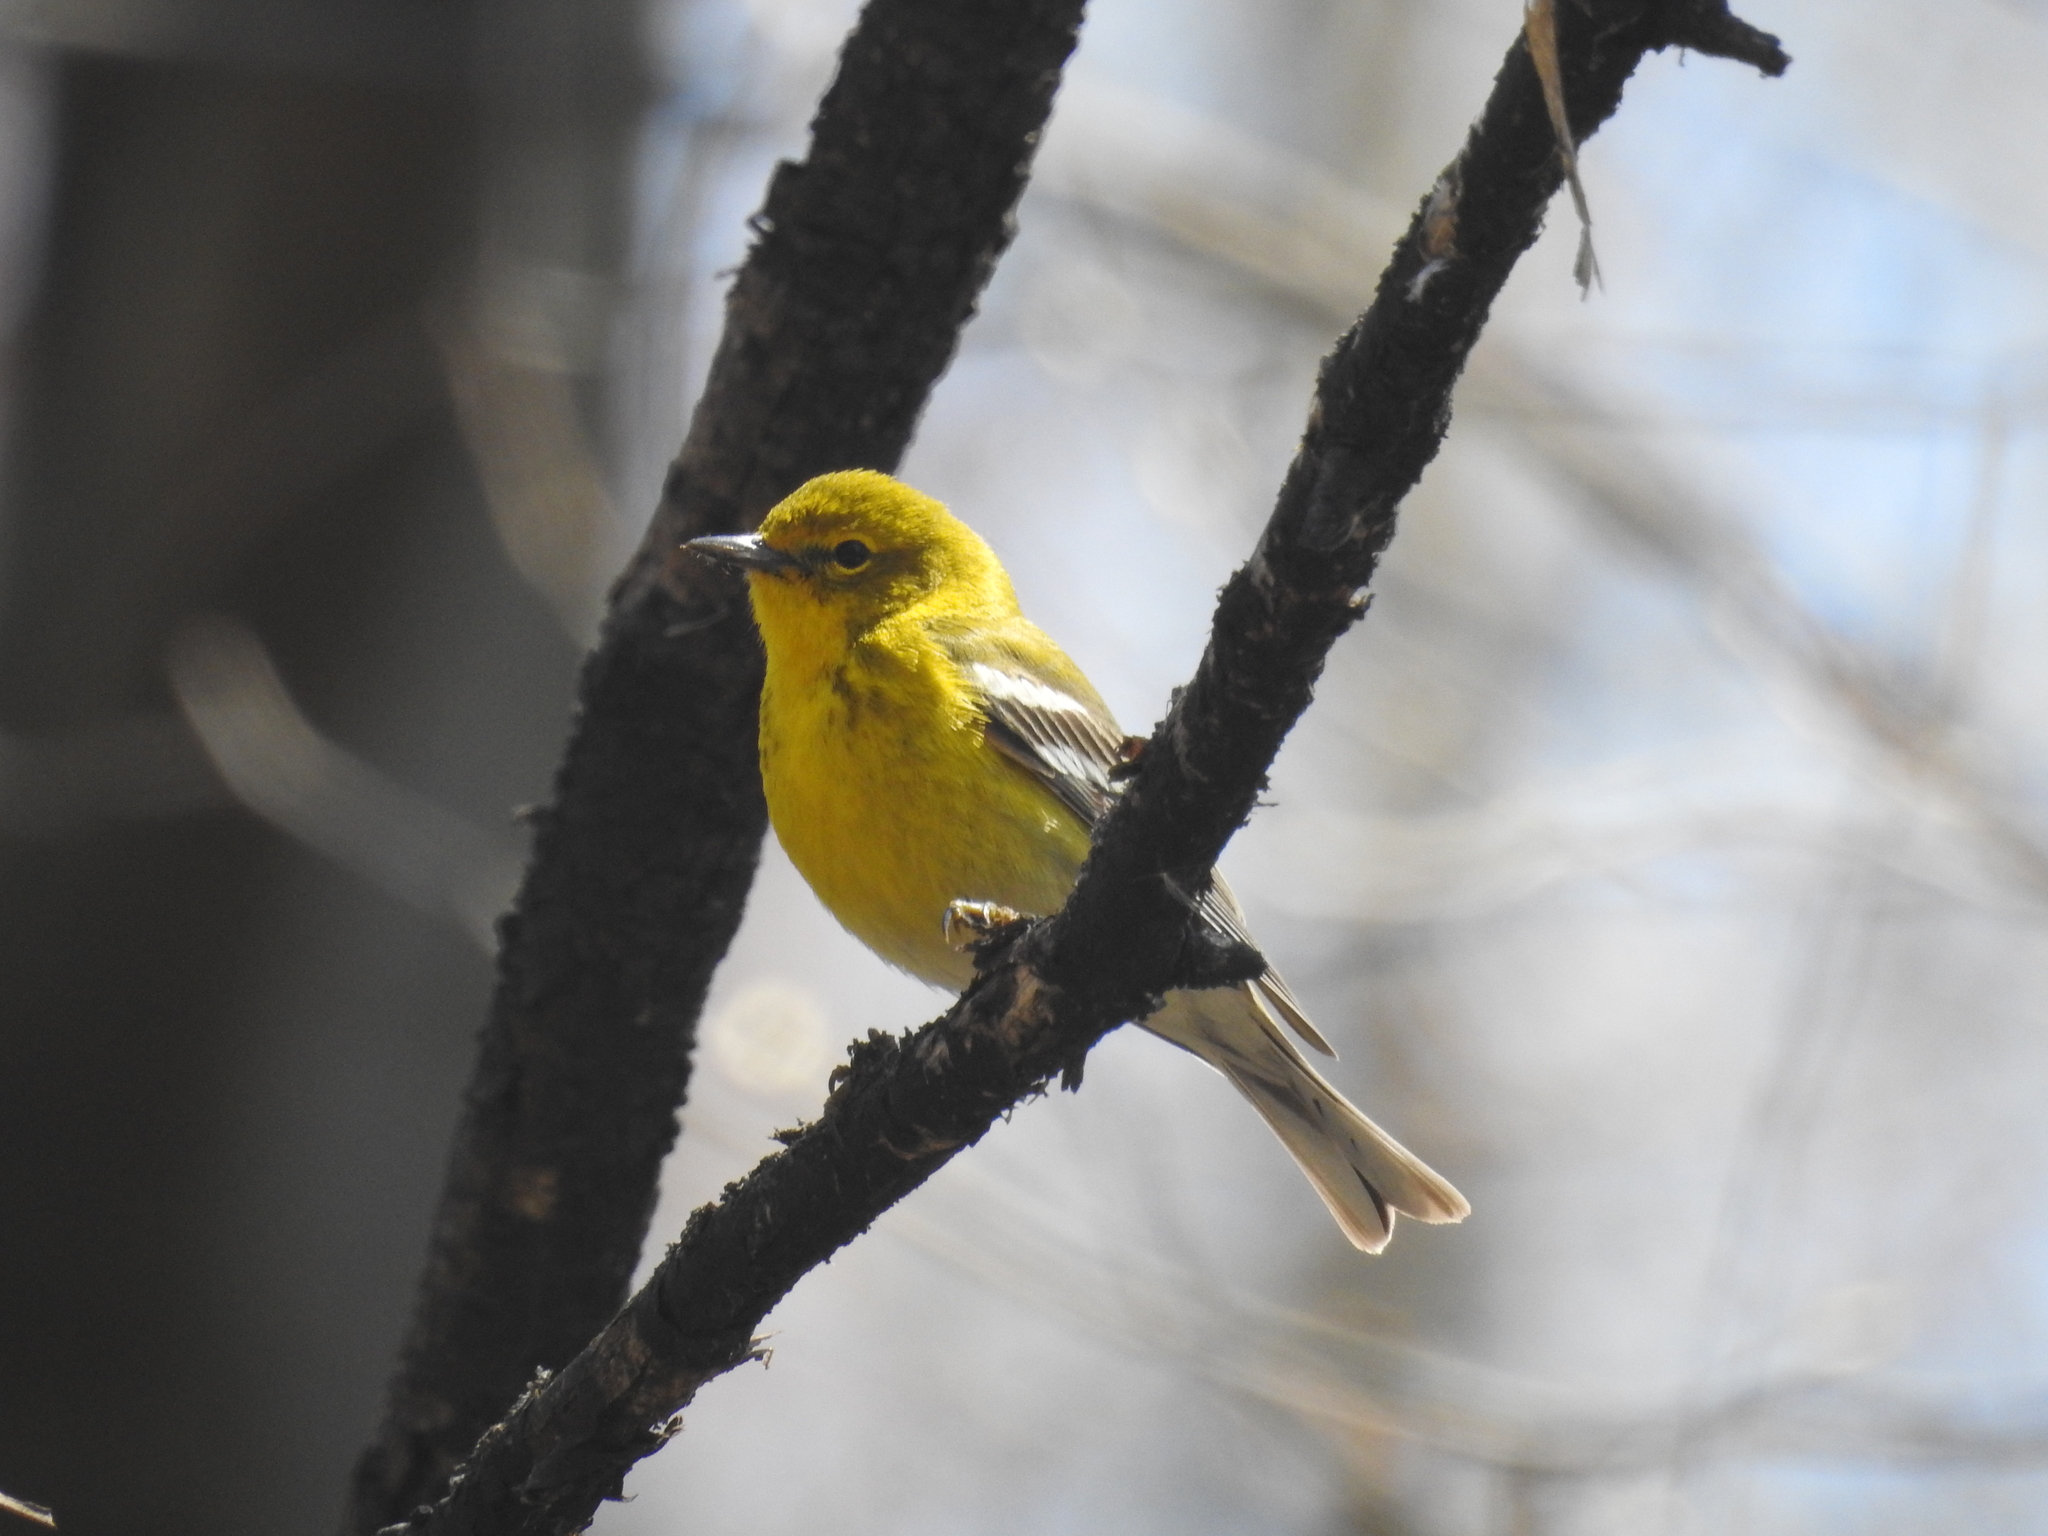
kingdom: Animalia
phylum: Chordata
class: Aves
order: Passeriformes
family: Parulidae
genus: Setophaga
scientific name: Setophaga pinus
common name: Pine warbler
